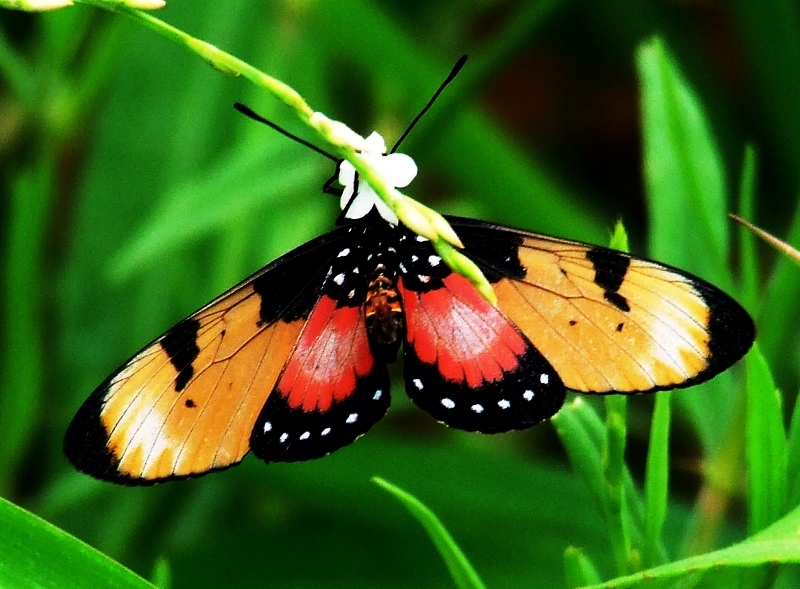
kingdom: Animalia
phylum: Arthropoda
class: Insecta
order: Lepidoptera
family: Nymphalidae
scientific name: Nymphalidae
